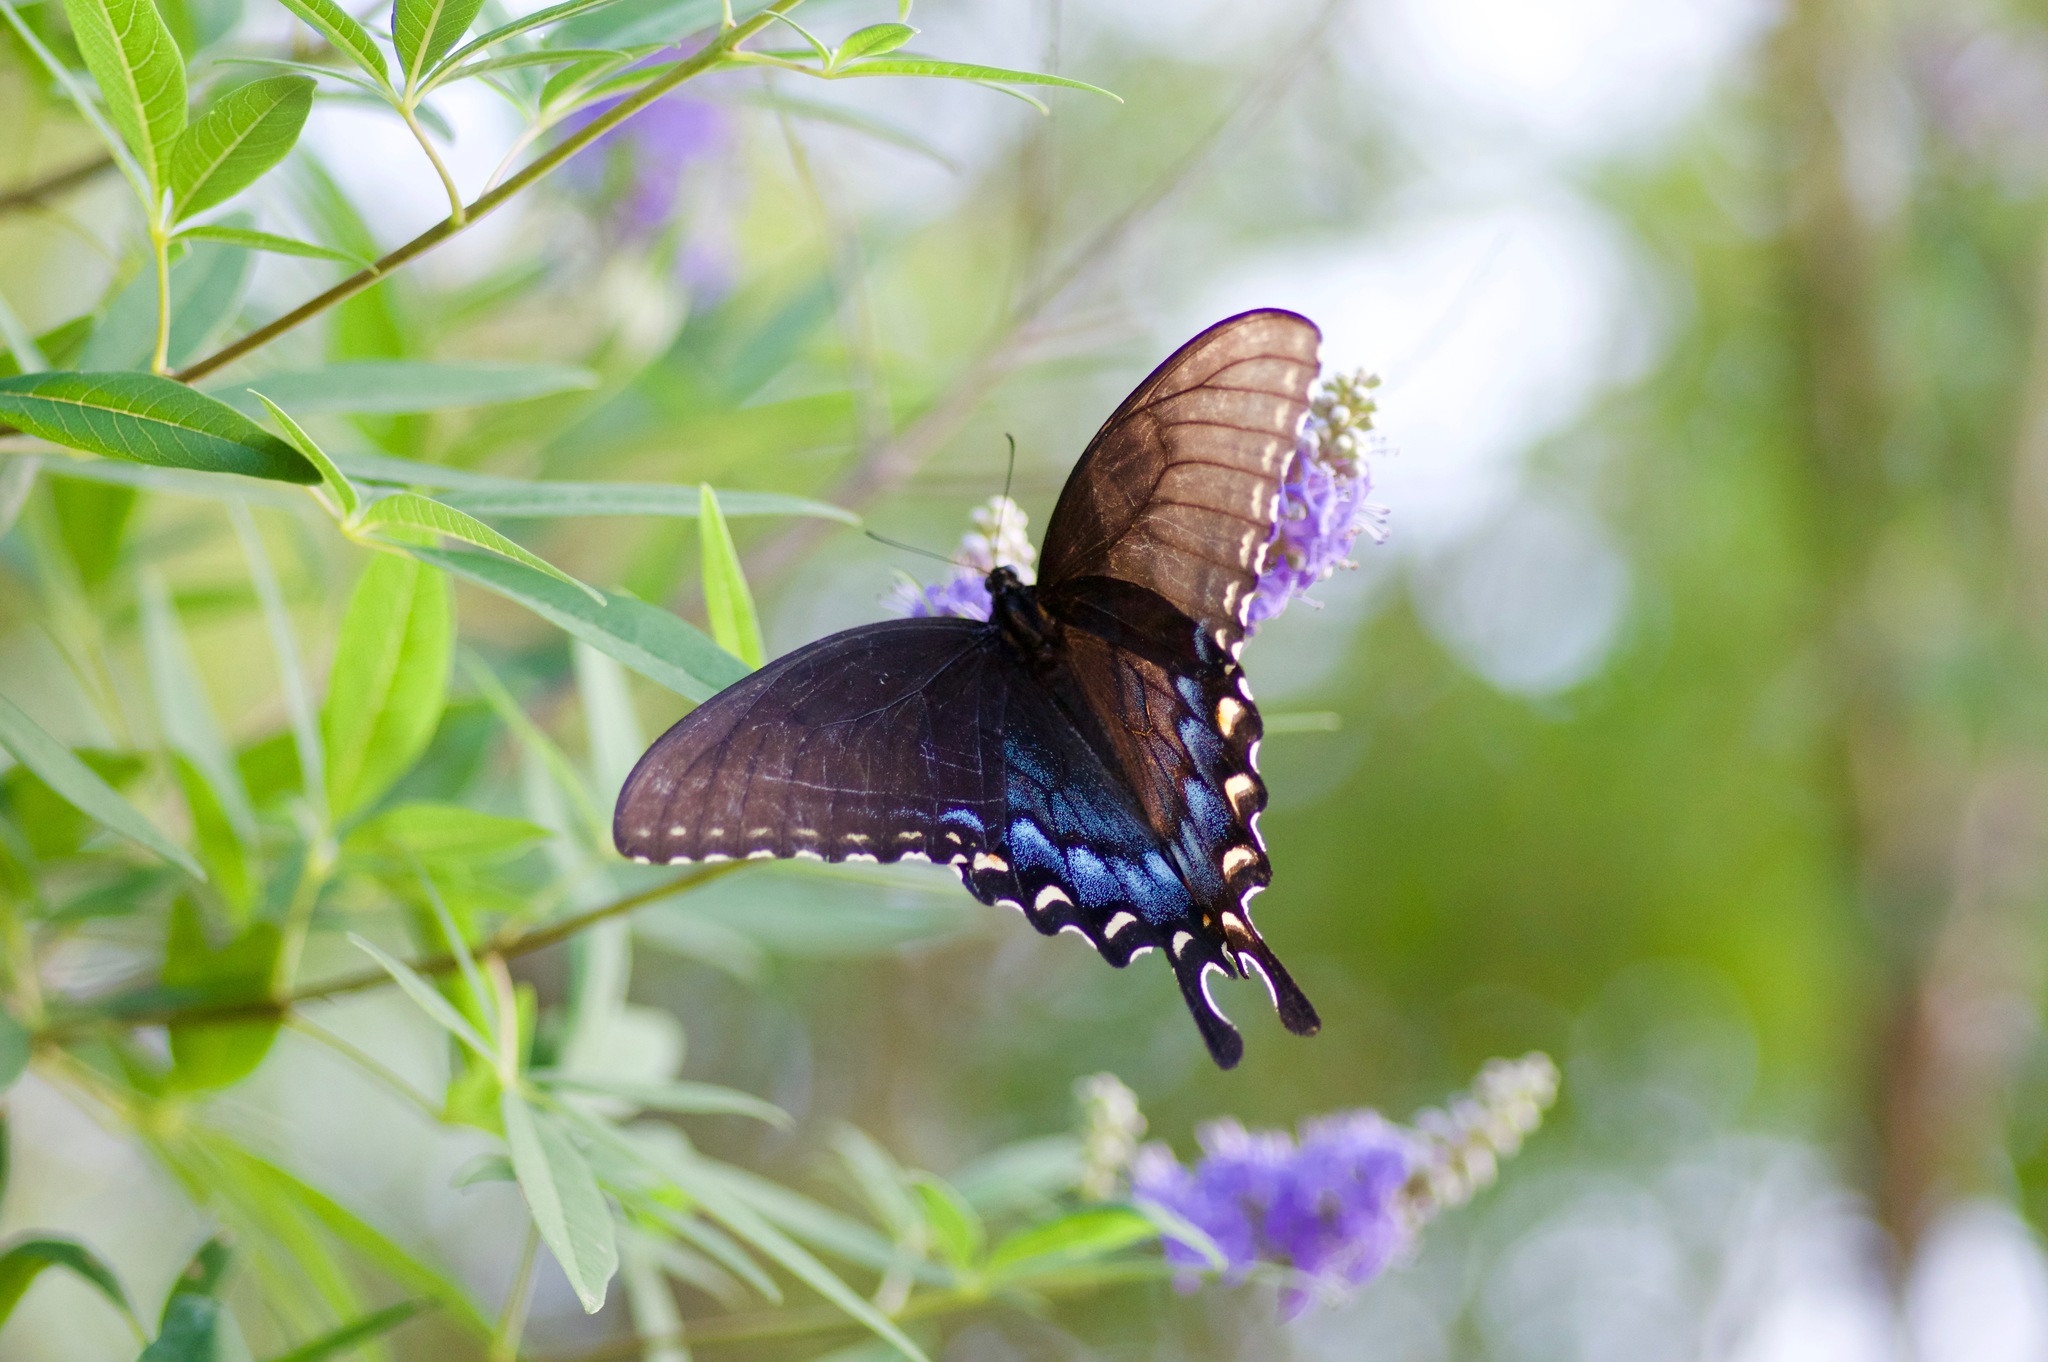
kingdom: Animalia
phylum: Arthropoda
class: Insecta
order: Lepidoptera
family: Papilionidae
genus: Papilio
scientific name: Papilio glaucus
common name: Tiger swallowtail
